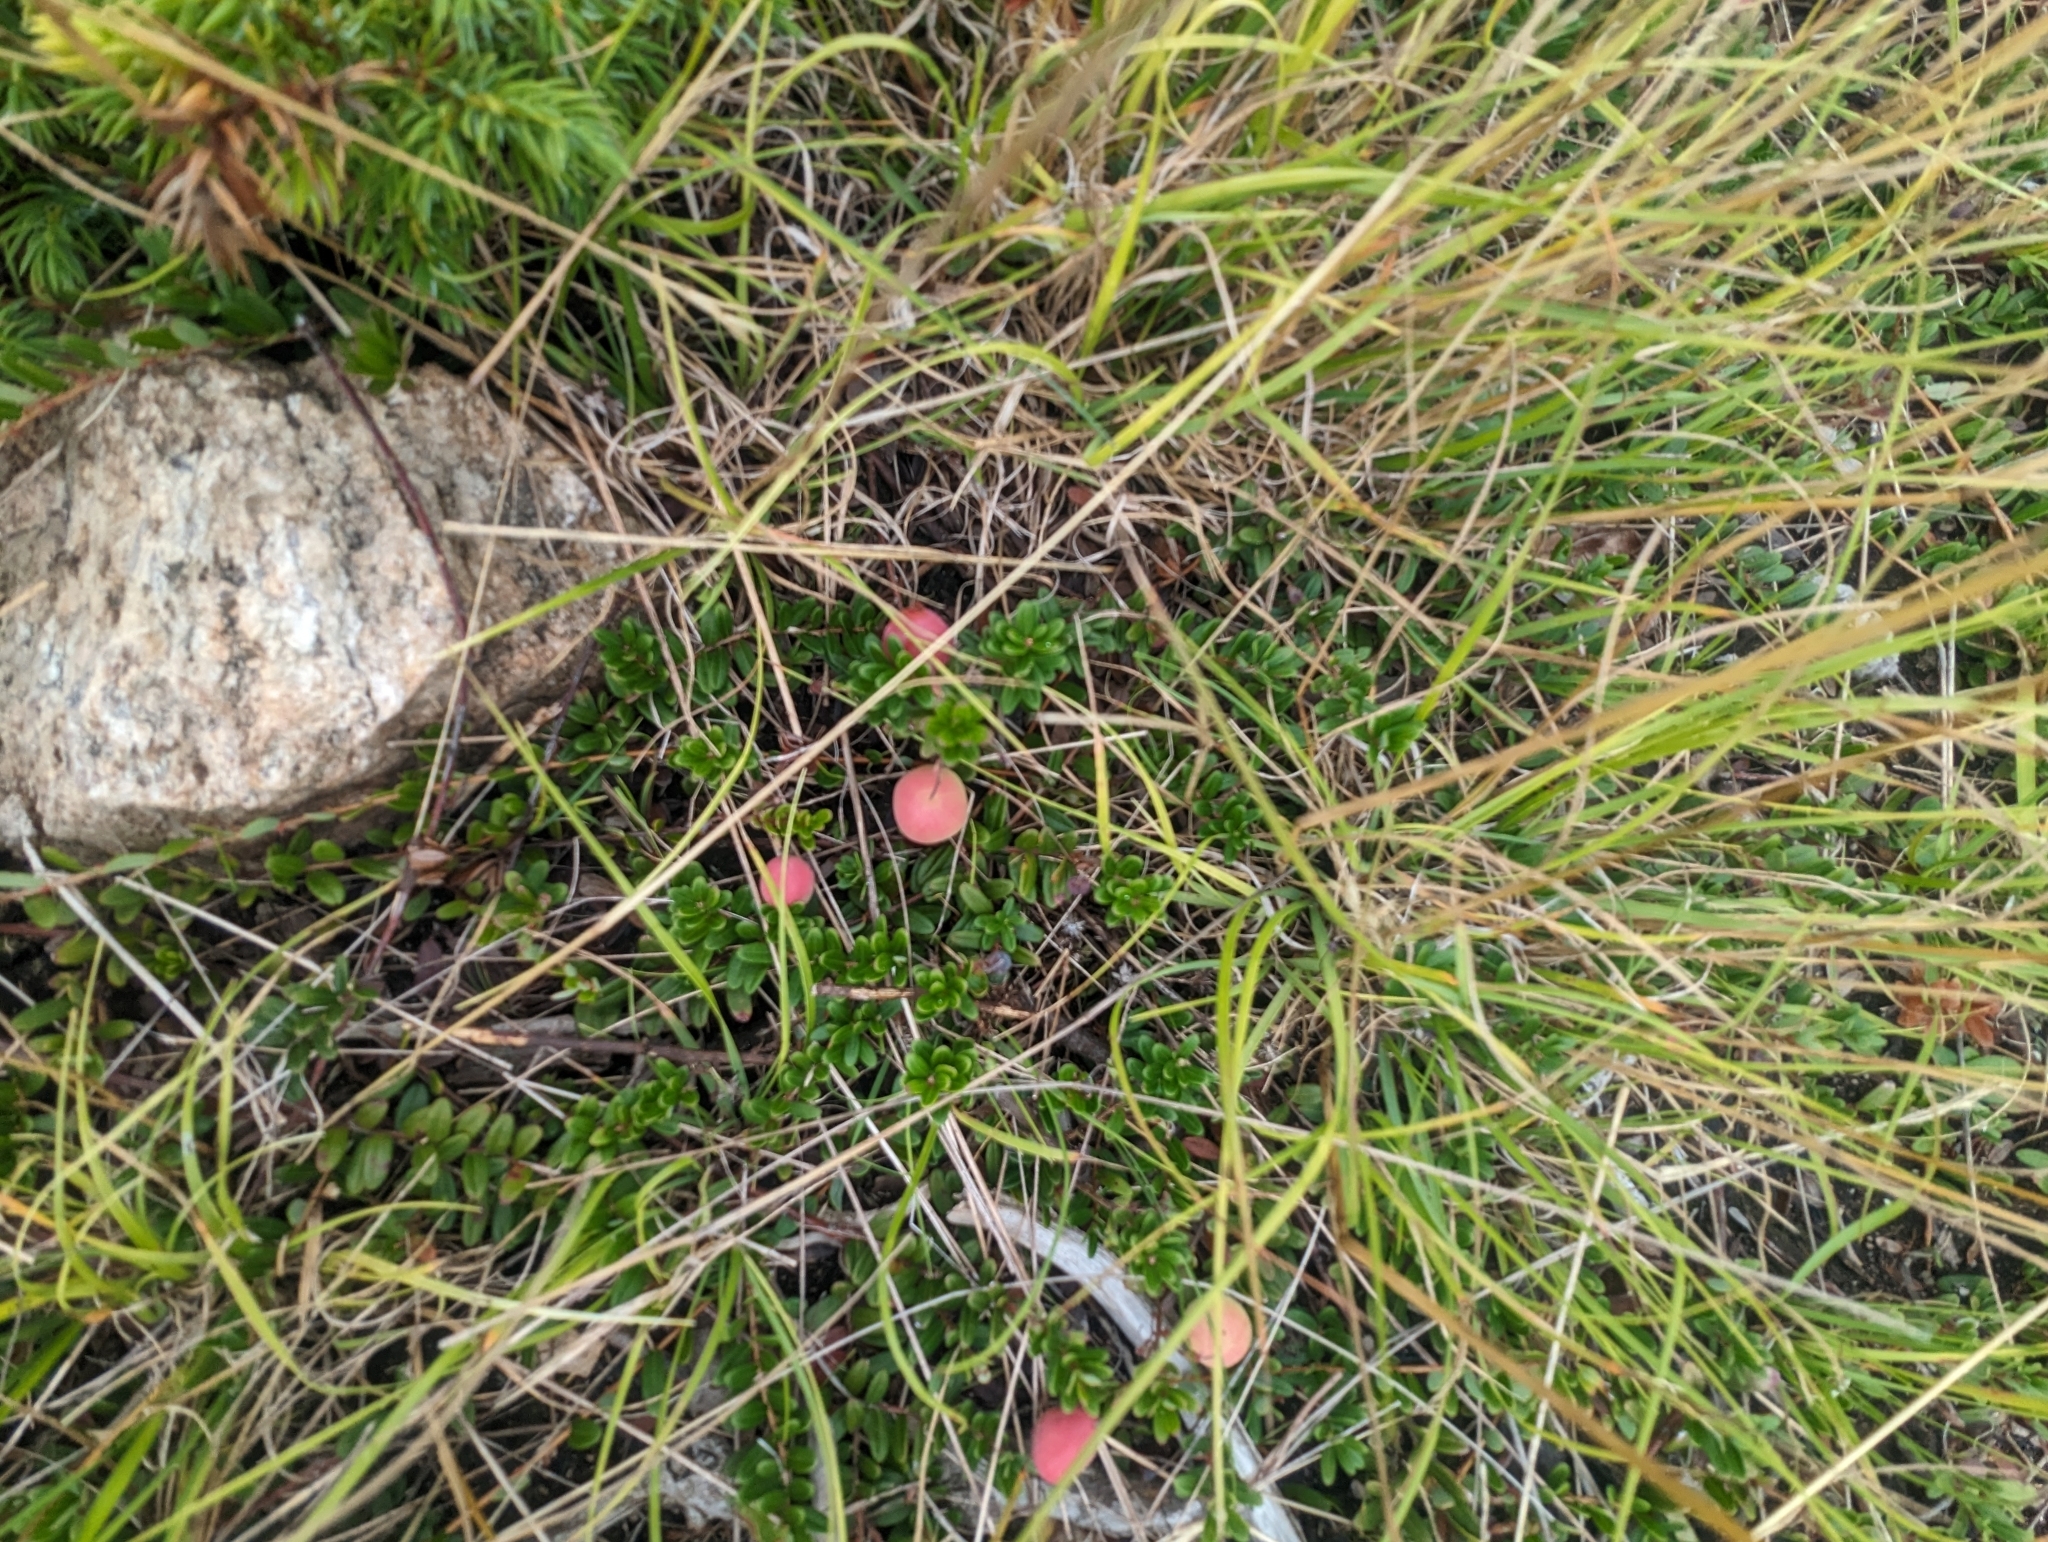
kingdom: Plantae
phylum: Tracheophyta
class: Magnoliopsida
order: Ericales
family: Ericaceae
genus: Vaccinium
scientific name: Vaccinium macrocarpon
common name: American cranberry
